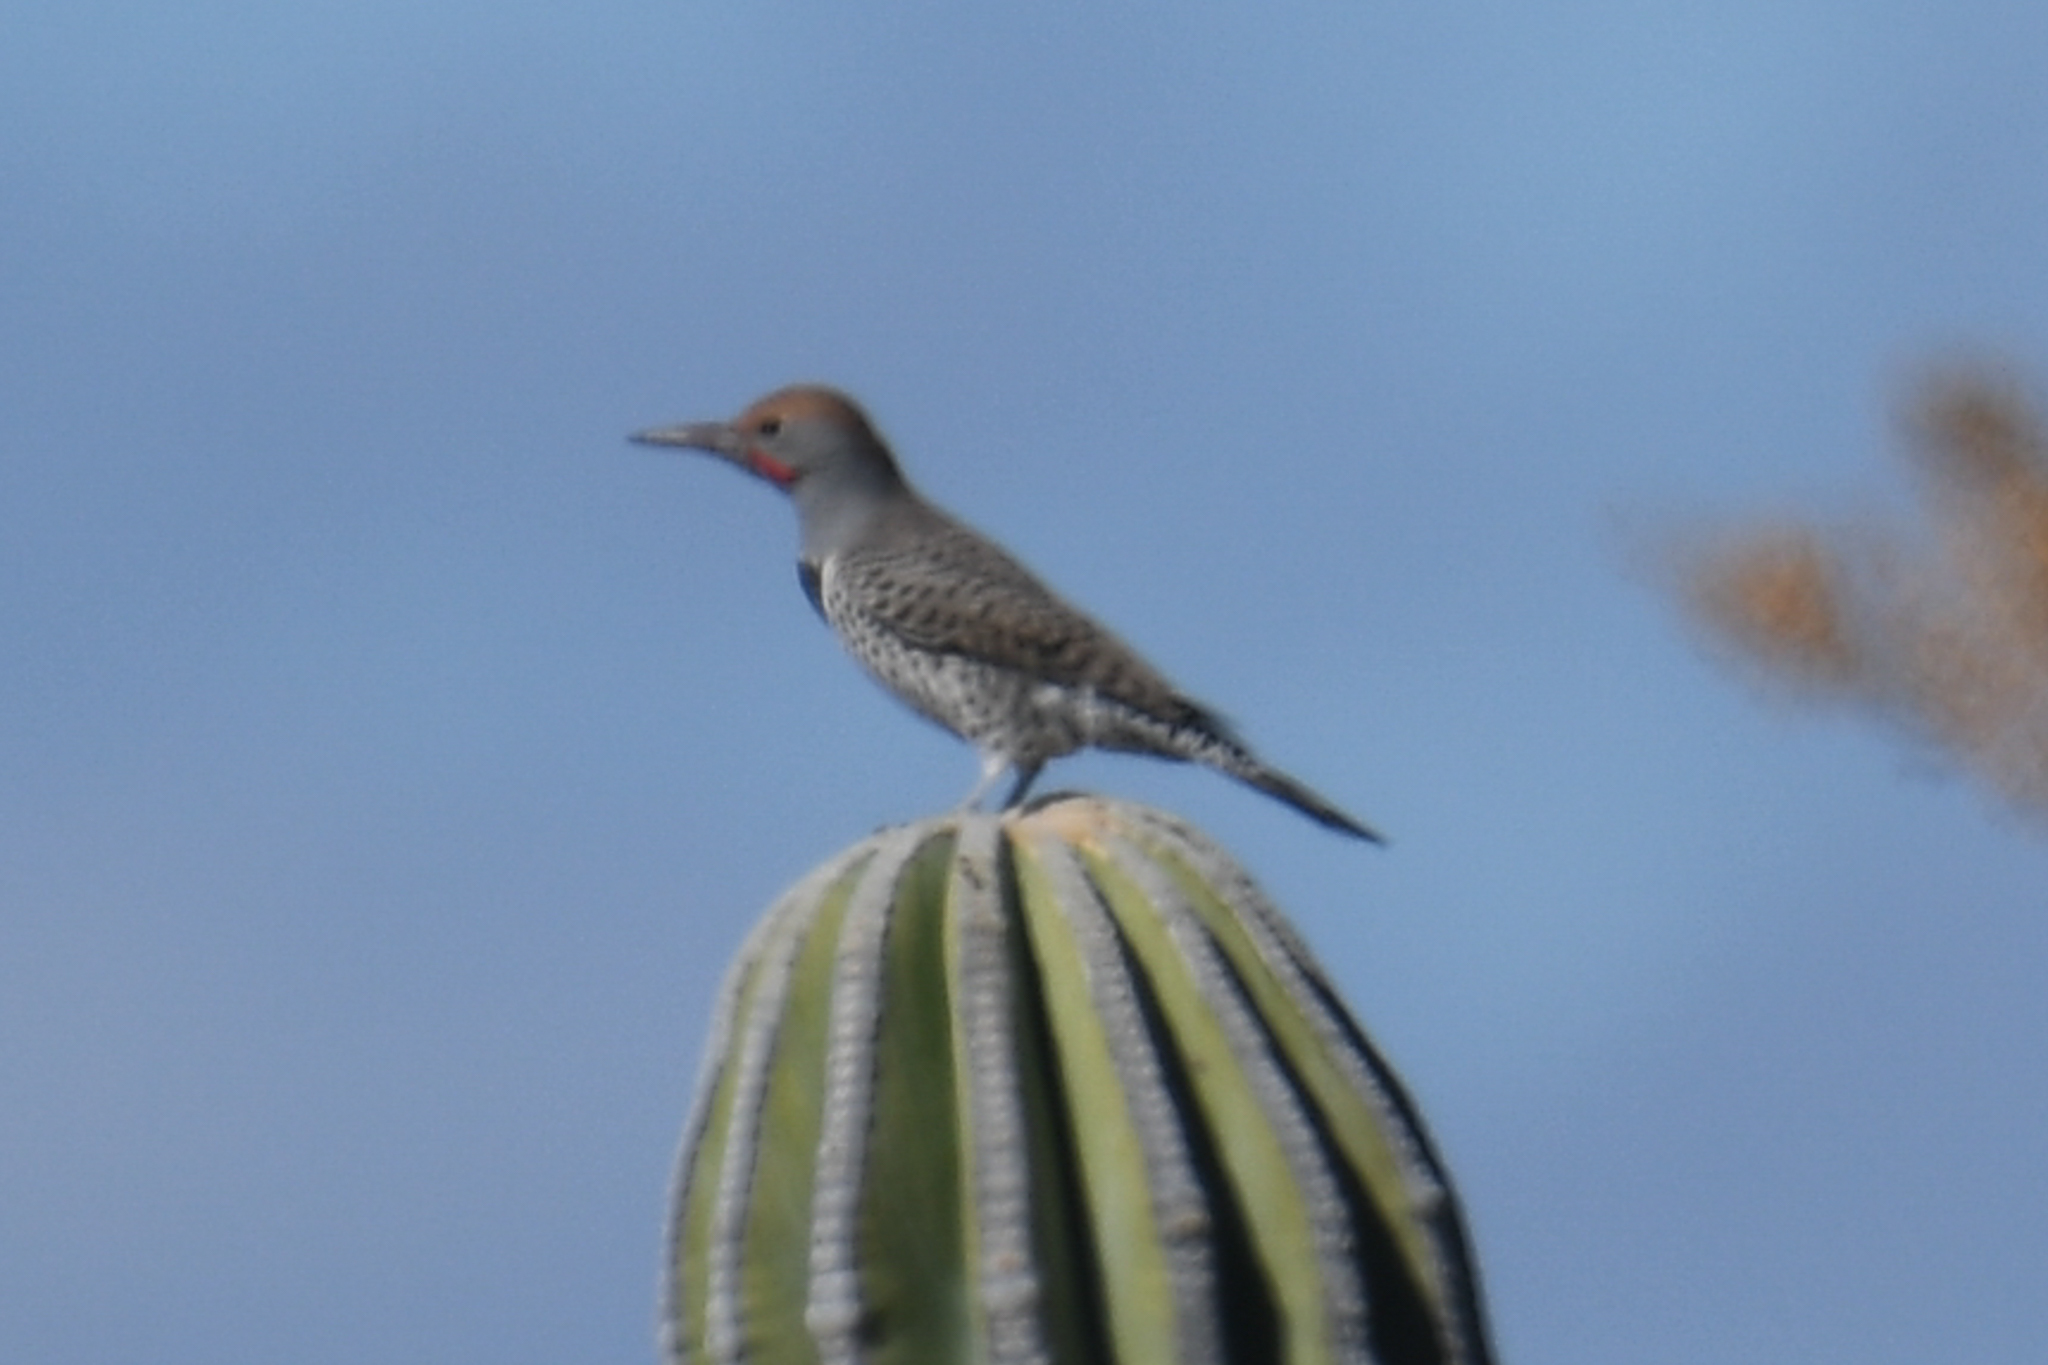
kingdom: Animalia
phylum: Chordata
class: Aves
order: Piciformes
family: Picidae
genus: Colaptes
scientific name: Colaptes chrysoides
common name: Gilded flicker
